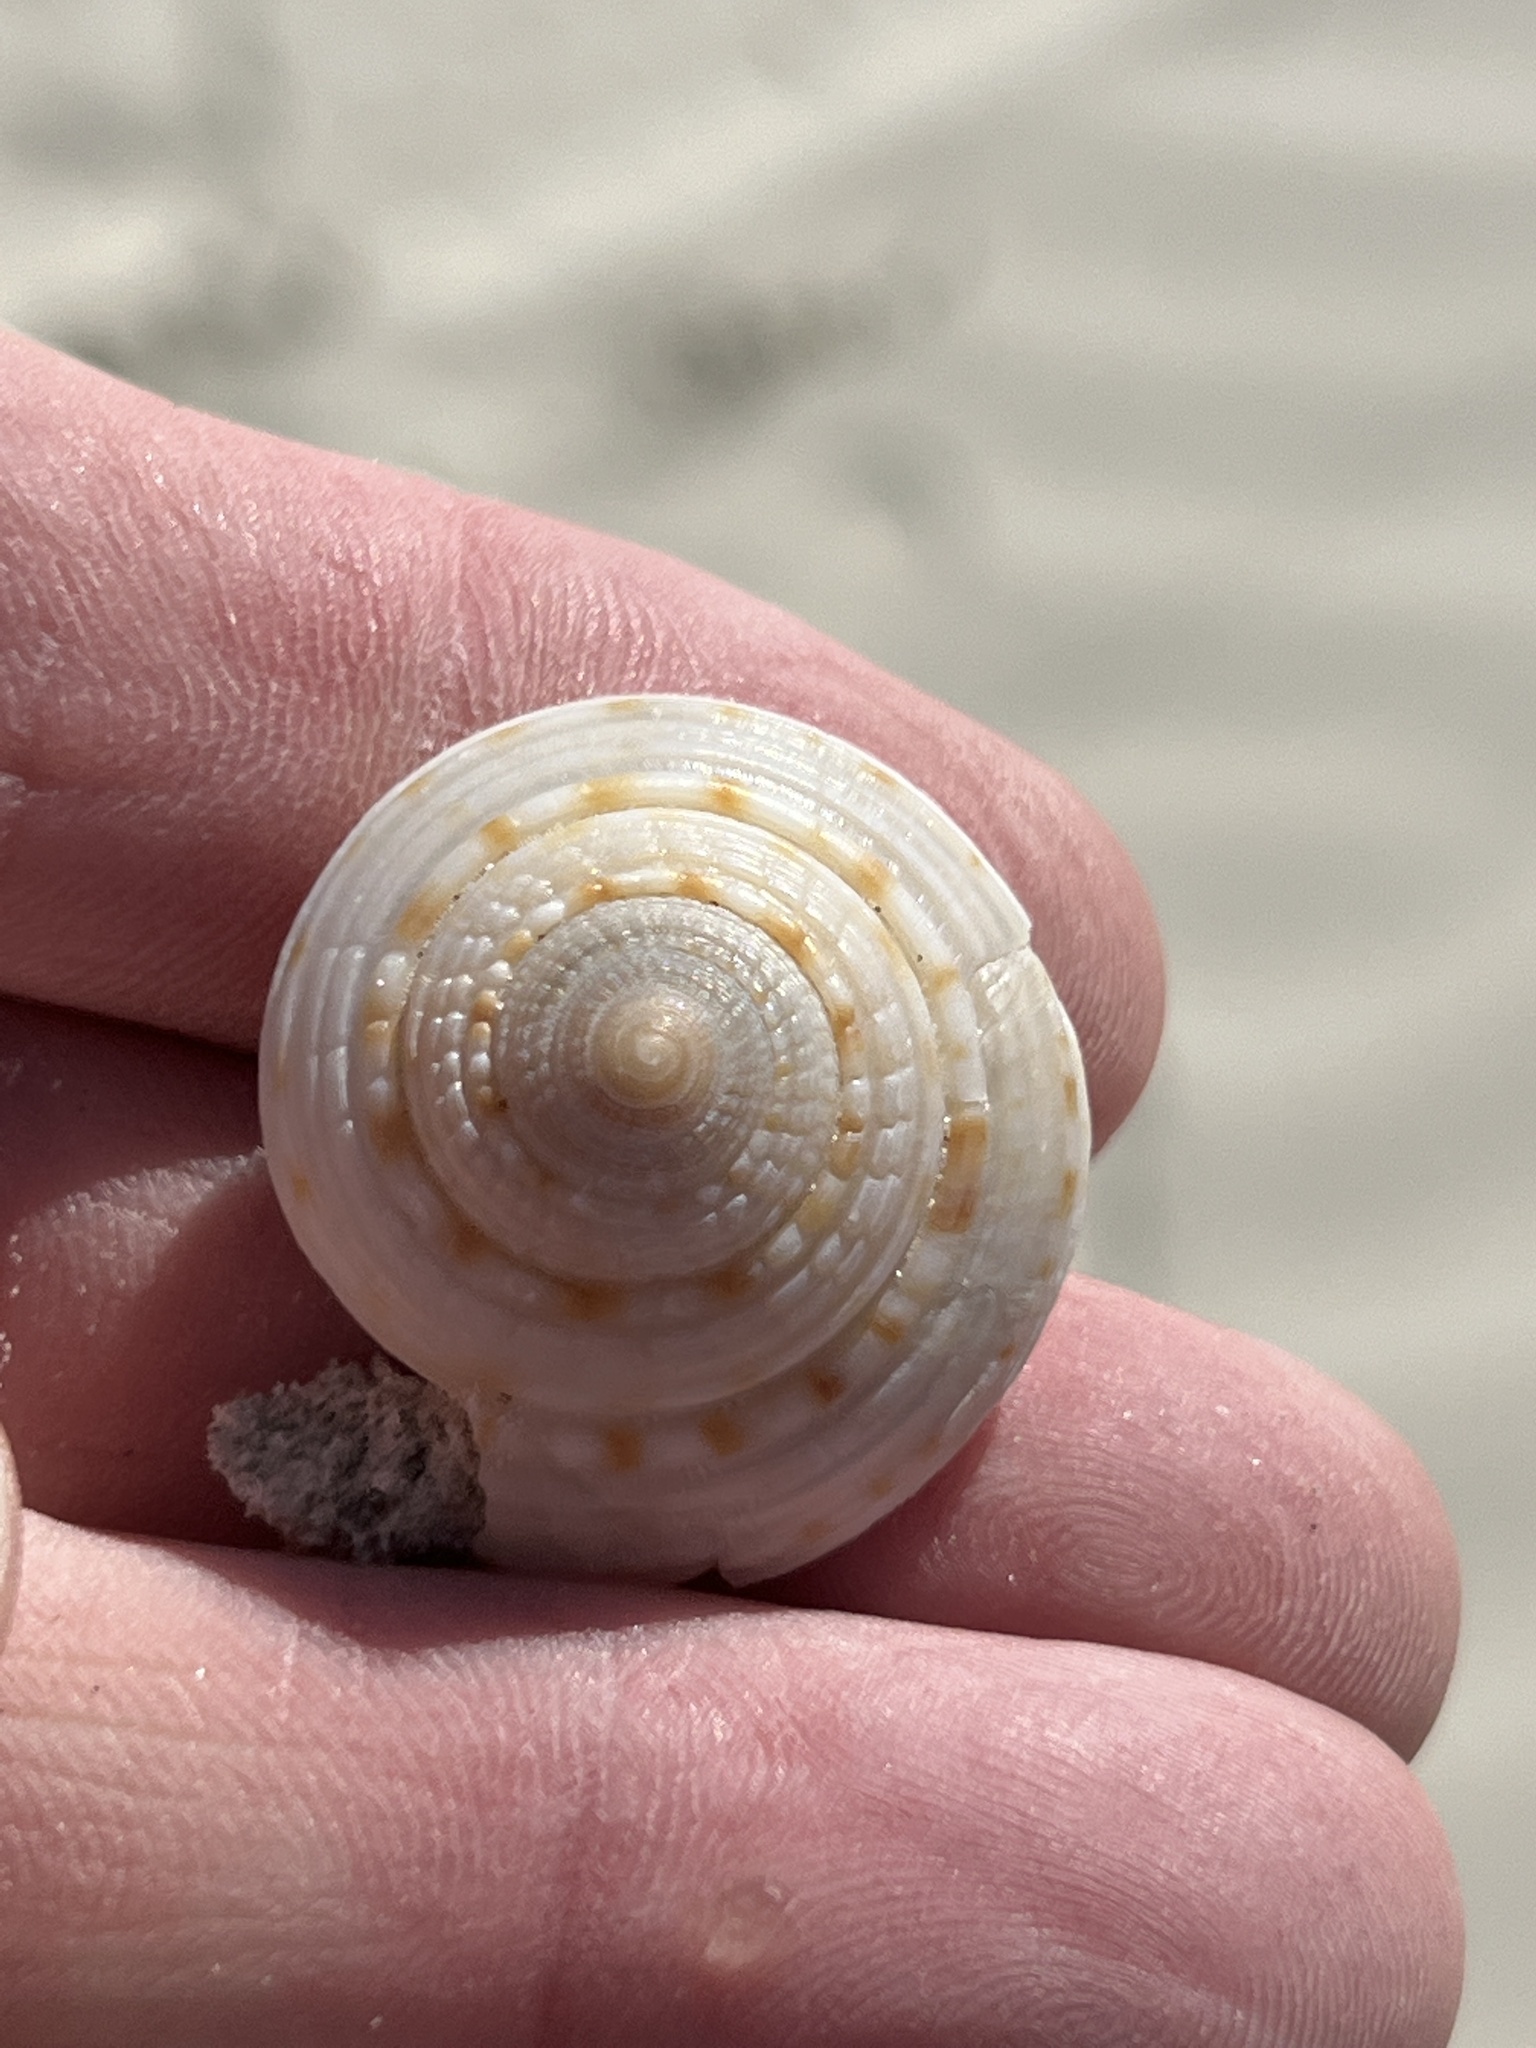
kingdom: Animalia
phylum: Mollusca
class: Gastropoda
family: Architectonicidae
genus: Architectonica
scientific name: Architectonica nobilis
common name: Common sundial
